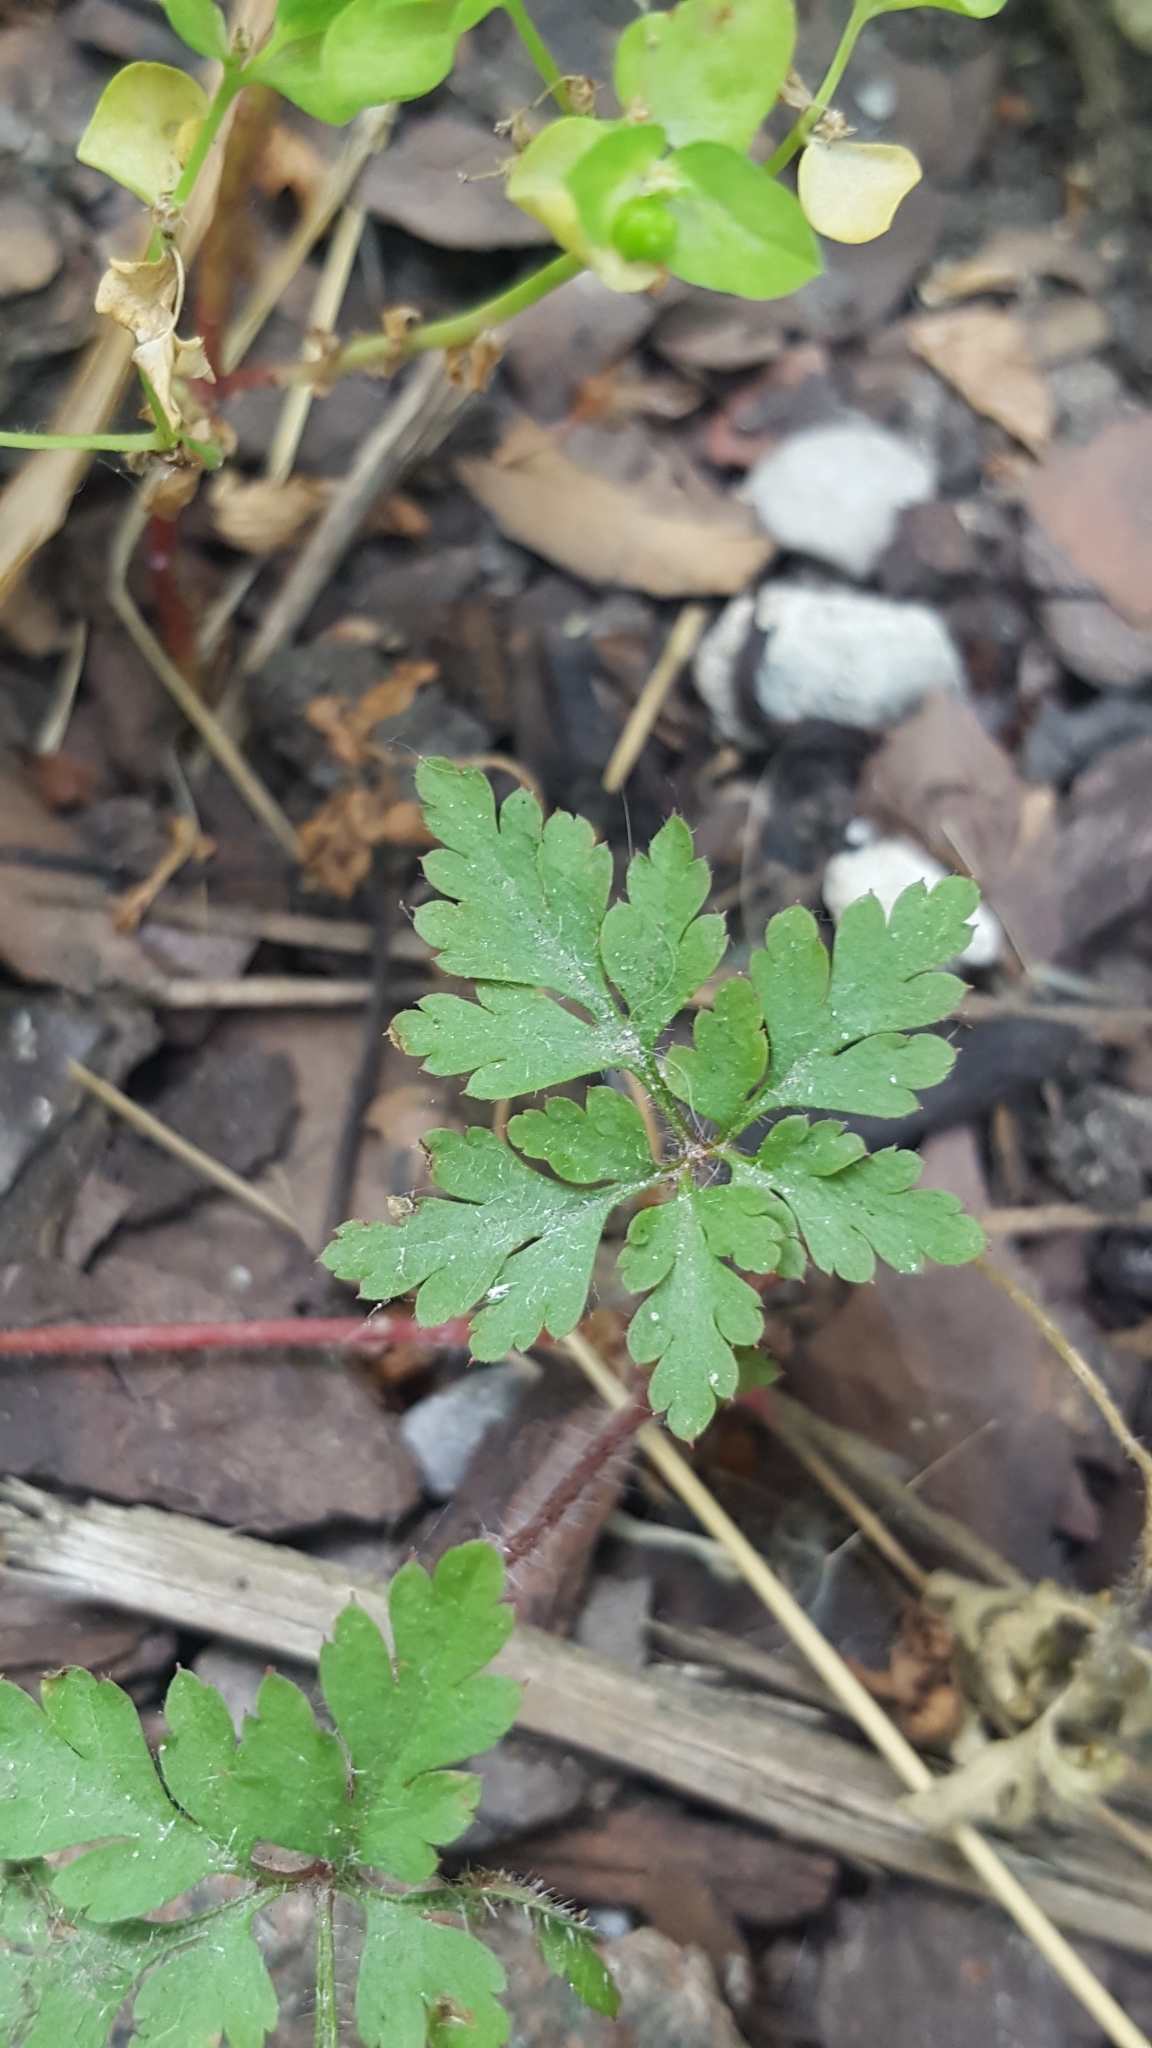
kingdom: Plantae
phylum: Tracheophyta
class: Magnoliopsida
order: Geraniales
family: Geraniaceae
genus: Geranium
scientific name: Geranium robertianum
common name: Herb-robert
